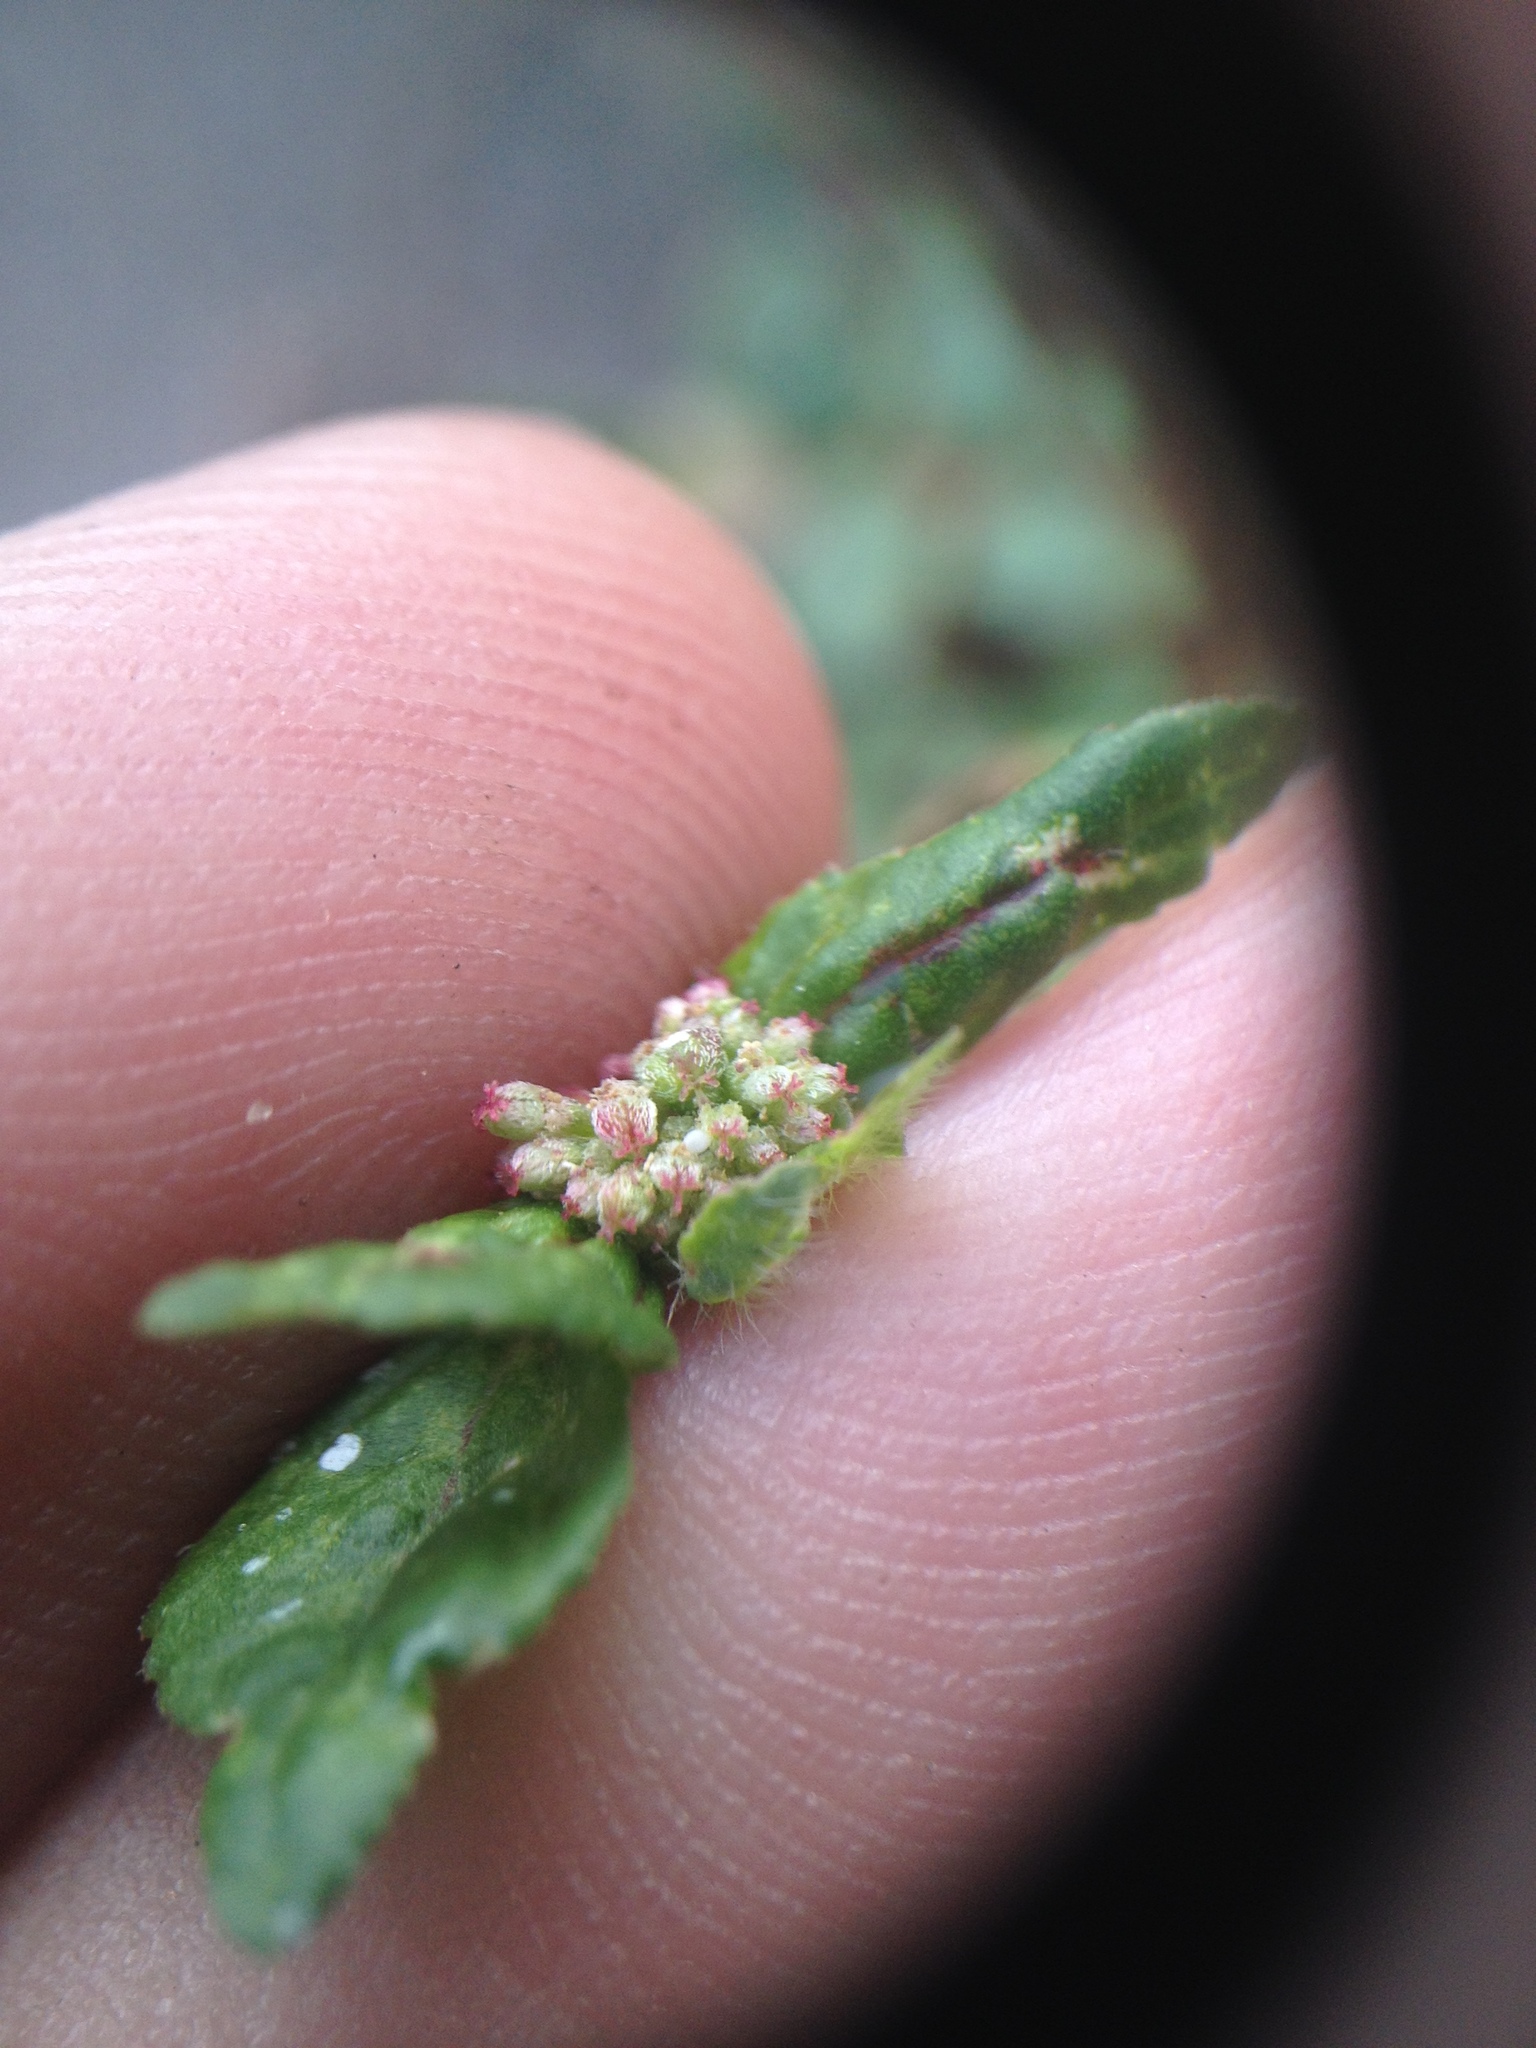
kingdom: Plantae
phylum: Tracheophyta
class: Magnoliopsida
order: Malpighiales
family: Euphorbiaceae
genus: Euphorbia
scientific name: Euphorbia ophthalmica
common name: Florida hammock sandmat
